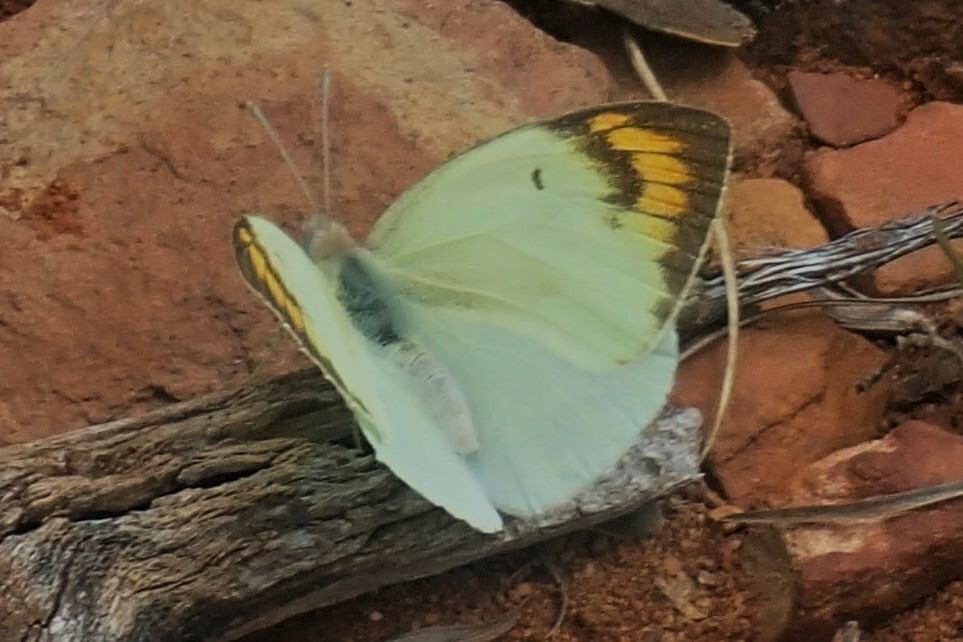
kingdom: Animalia
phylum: Arthropoda
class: Insecta
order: Lepidoptera
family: Pieridae
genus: Colotis
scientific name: Colotis subfasciatus
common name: Lemon traveller tip
